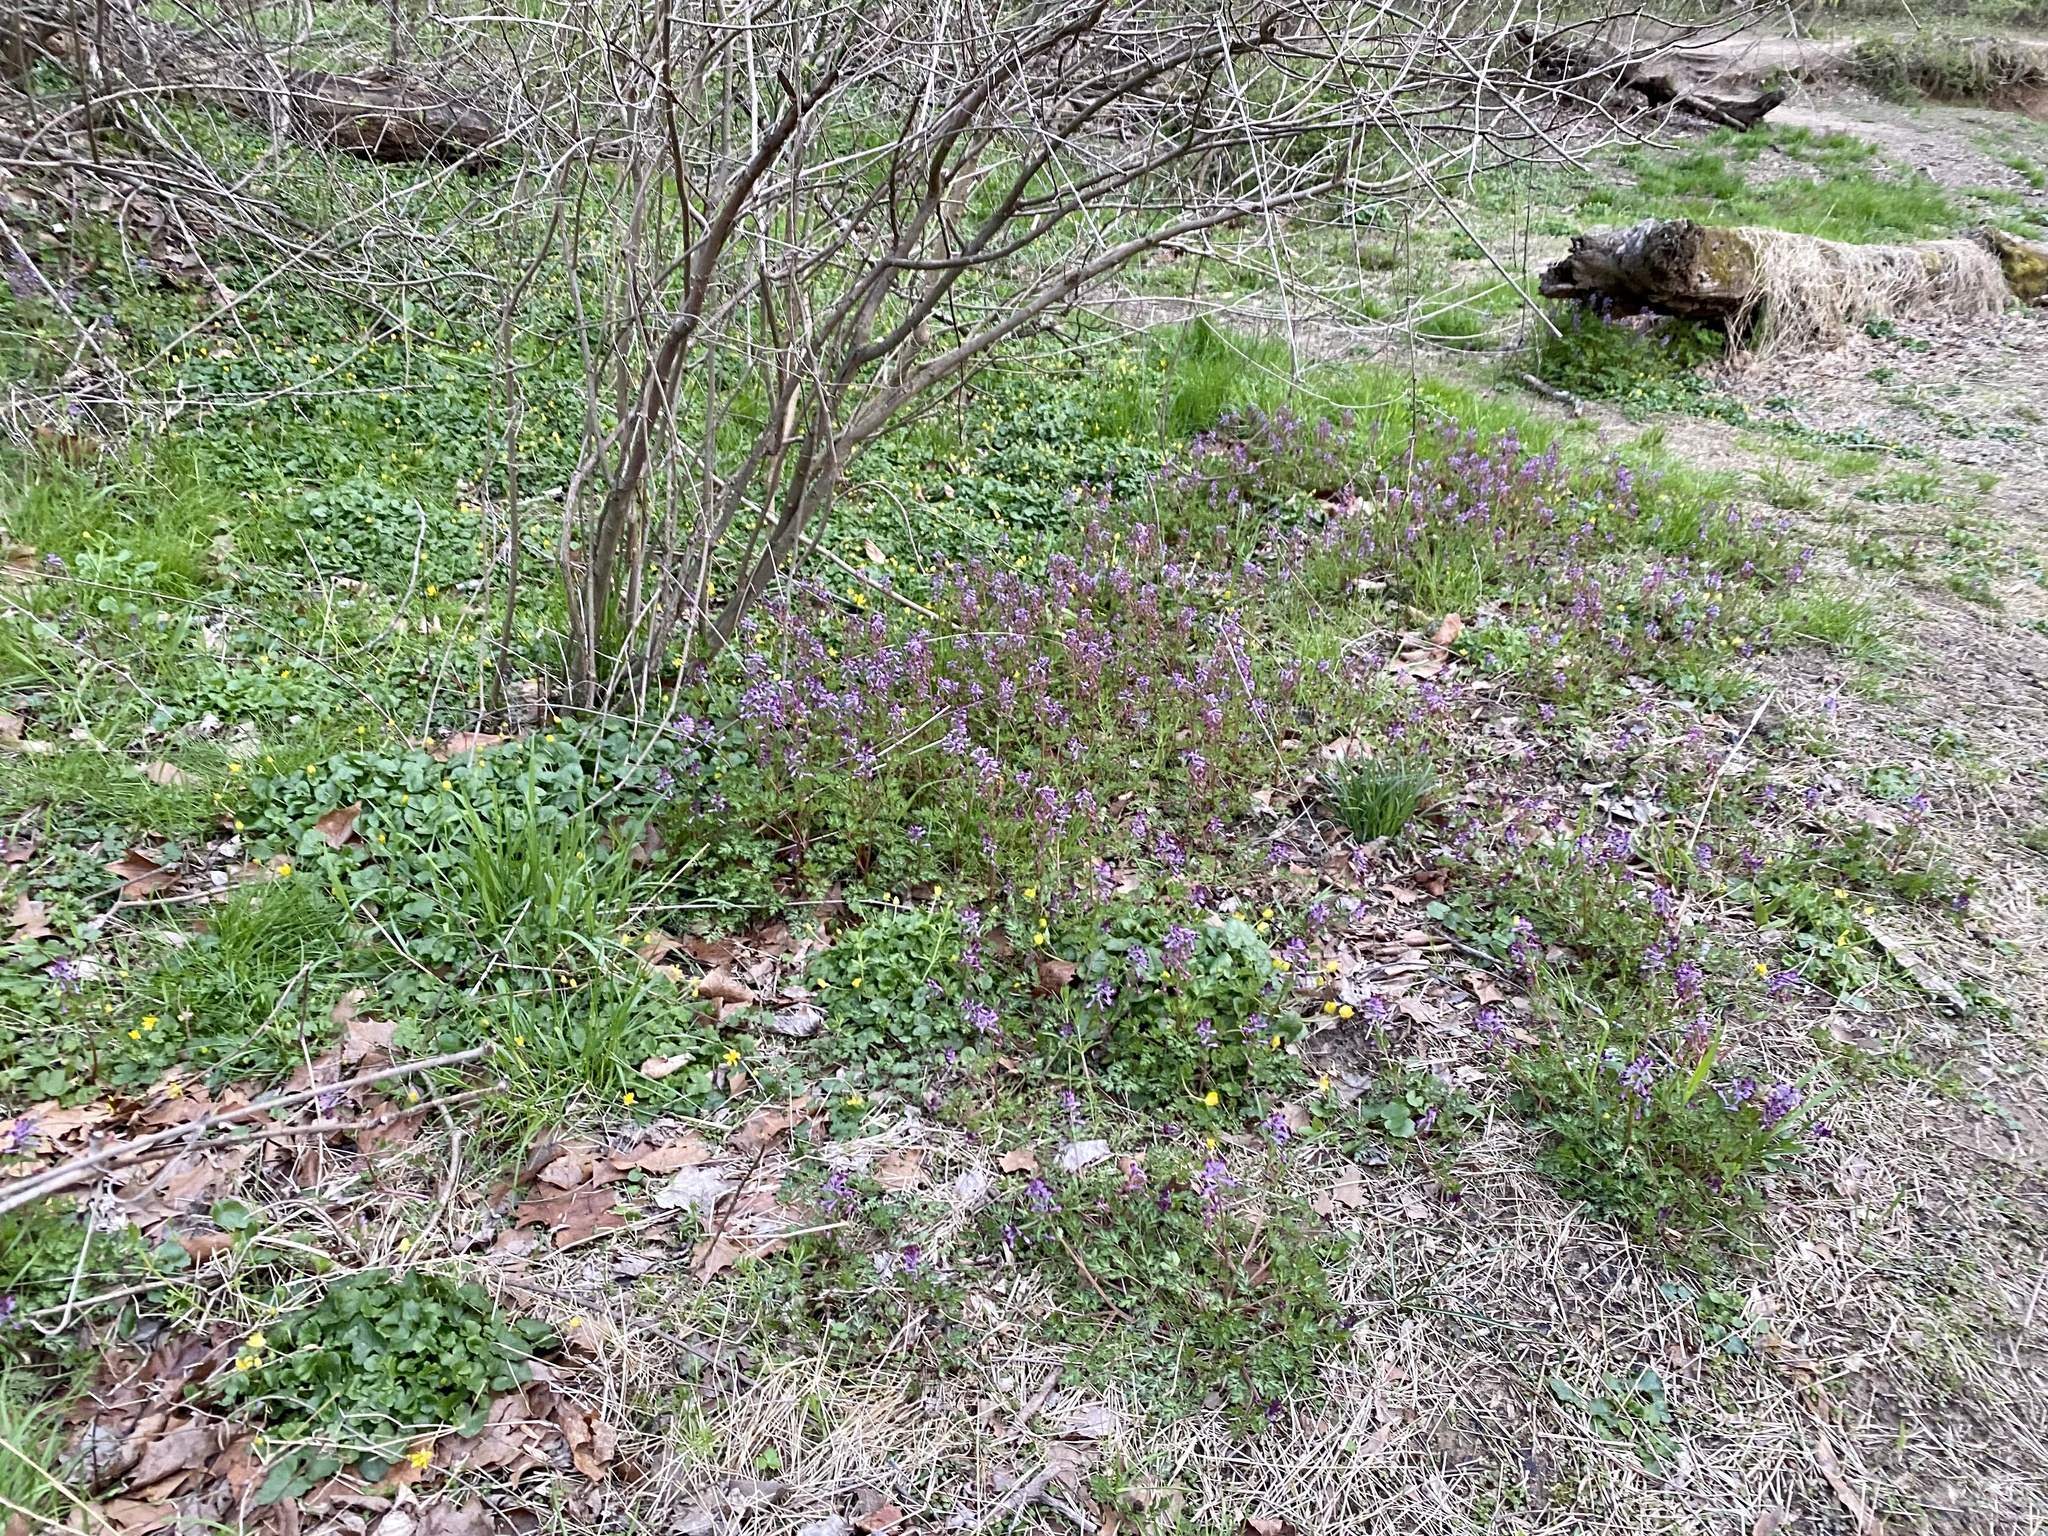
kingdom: Plantae
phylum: Tracheophyta
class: Magnoliopsida
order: Ranunculales
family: Papaveraceae
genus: Corydalis
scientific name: Corydalis incisa
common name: Incised fumewort
